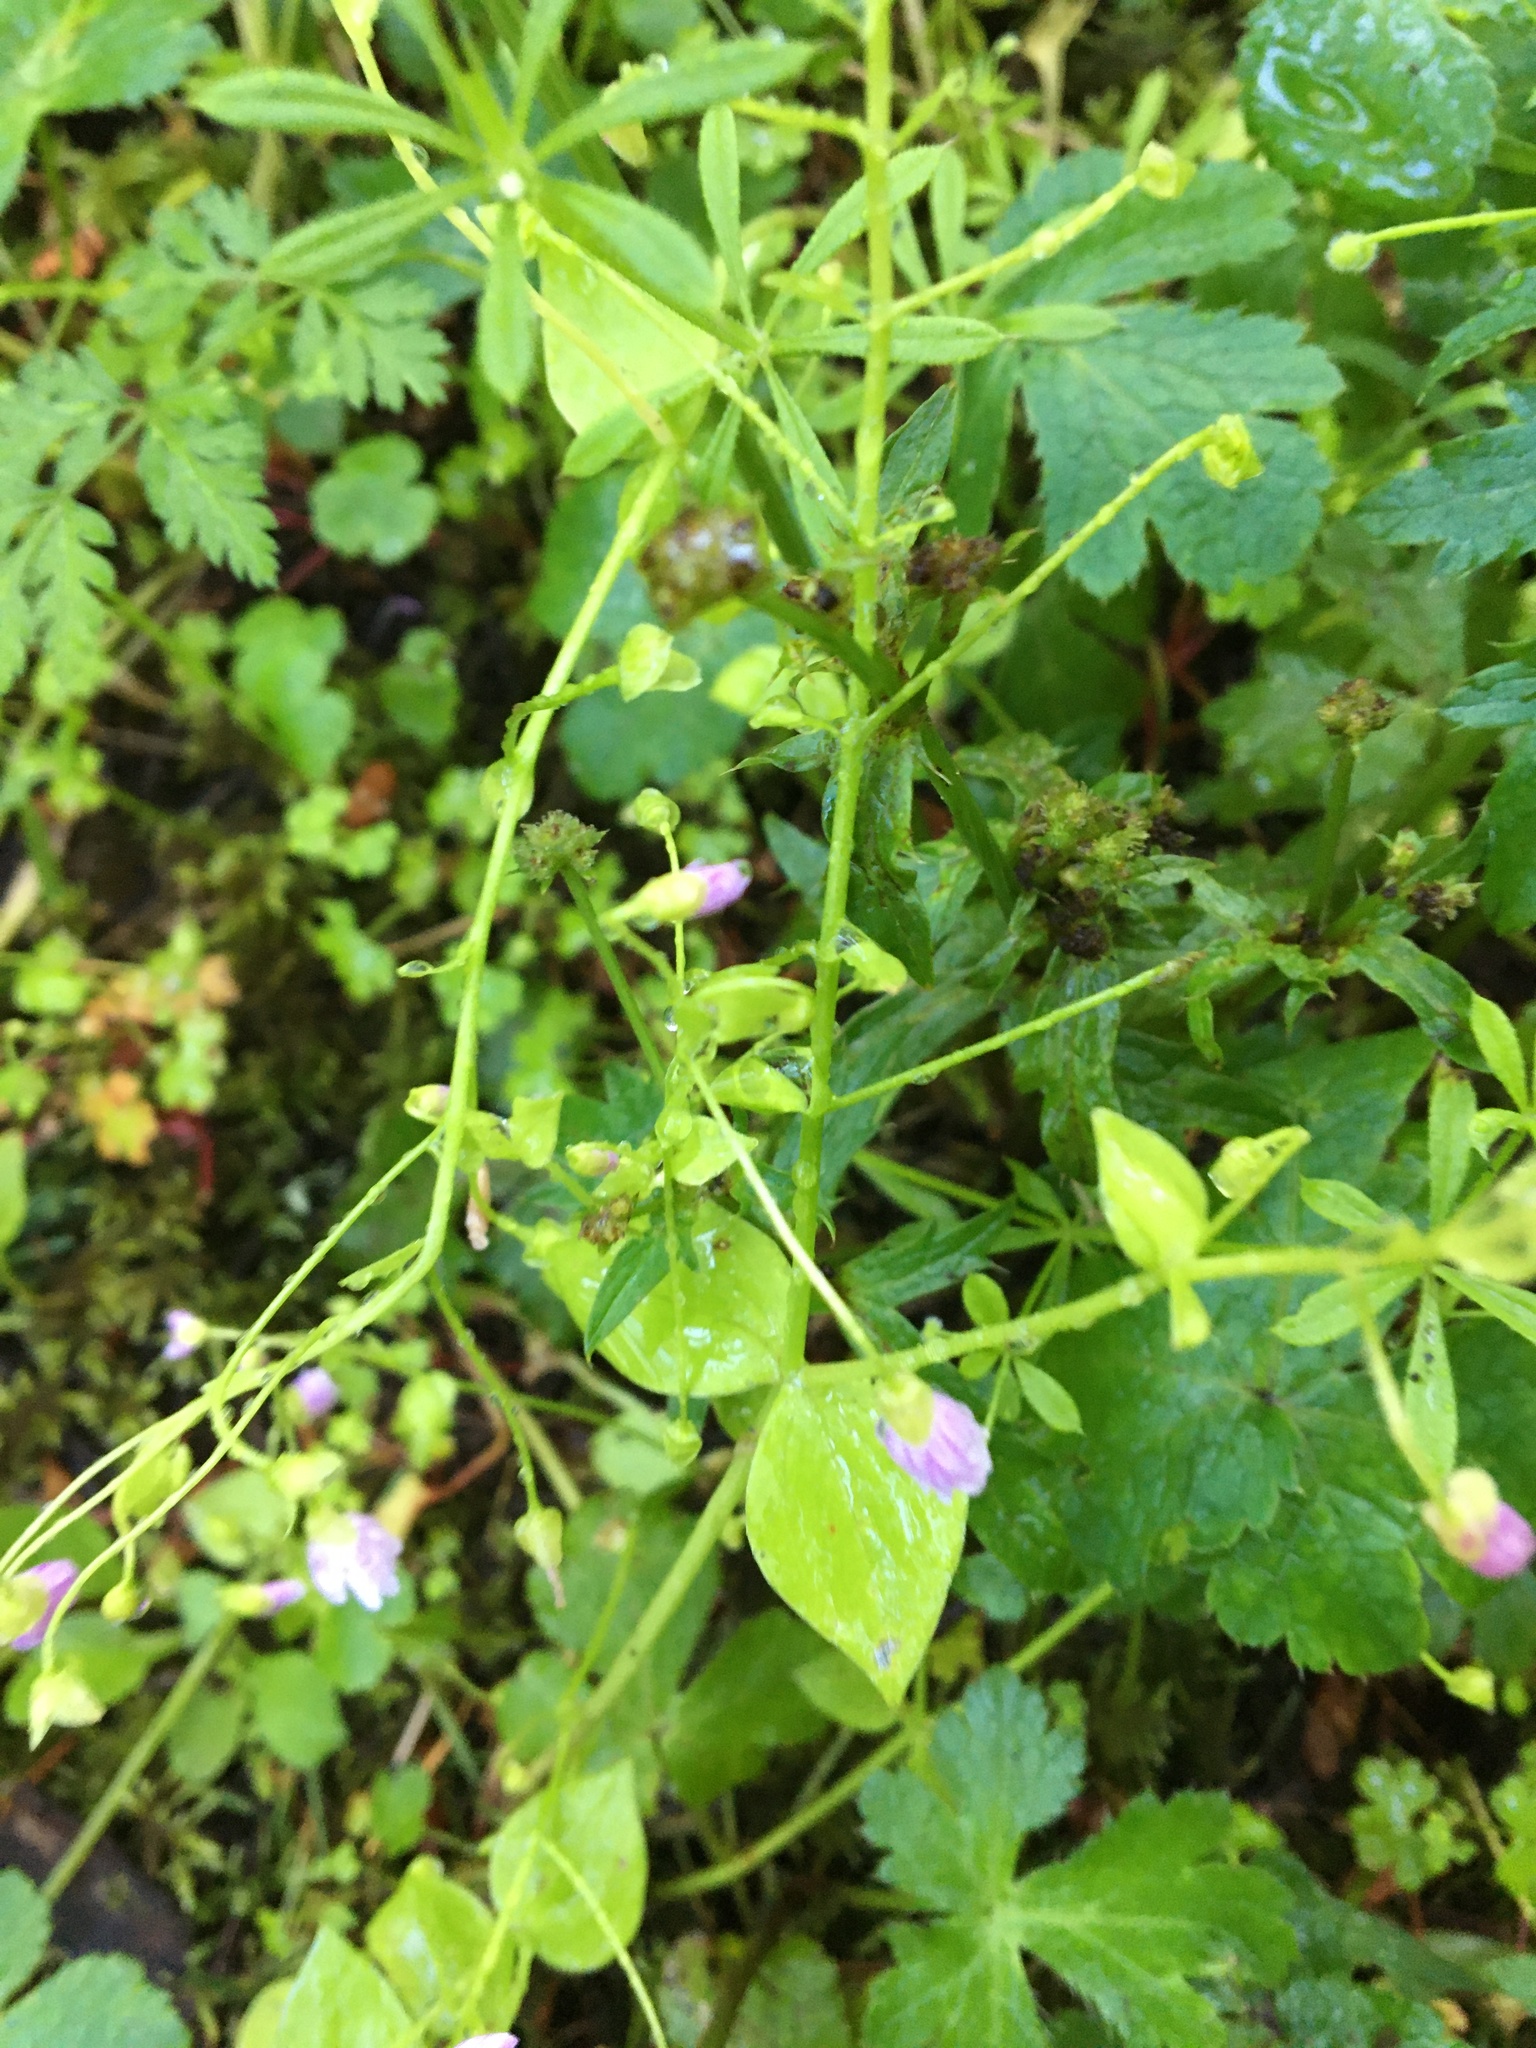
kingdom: Plantae
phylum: Tracheophyta
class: Magnoliopsida
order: Caryophyllales
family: Montiaceae
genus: Claytonia
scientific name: Claytonia sibirica
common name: Pink purslane
